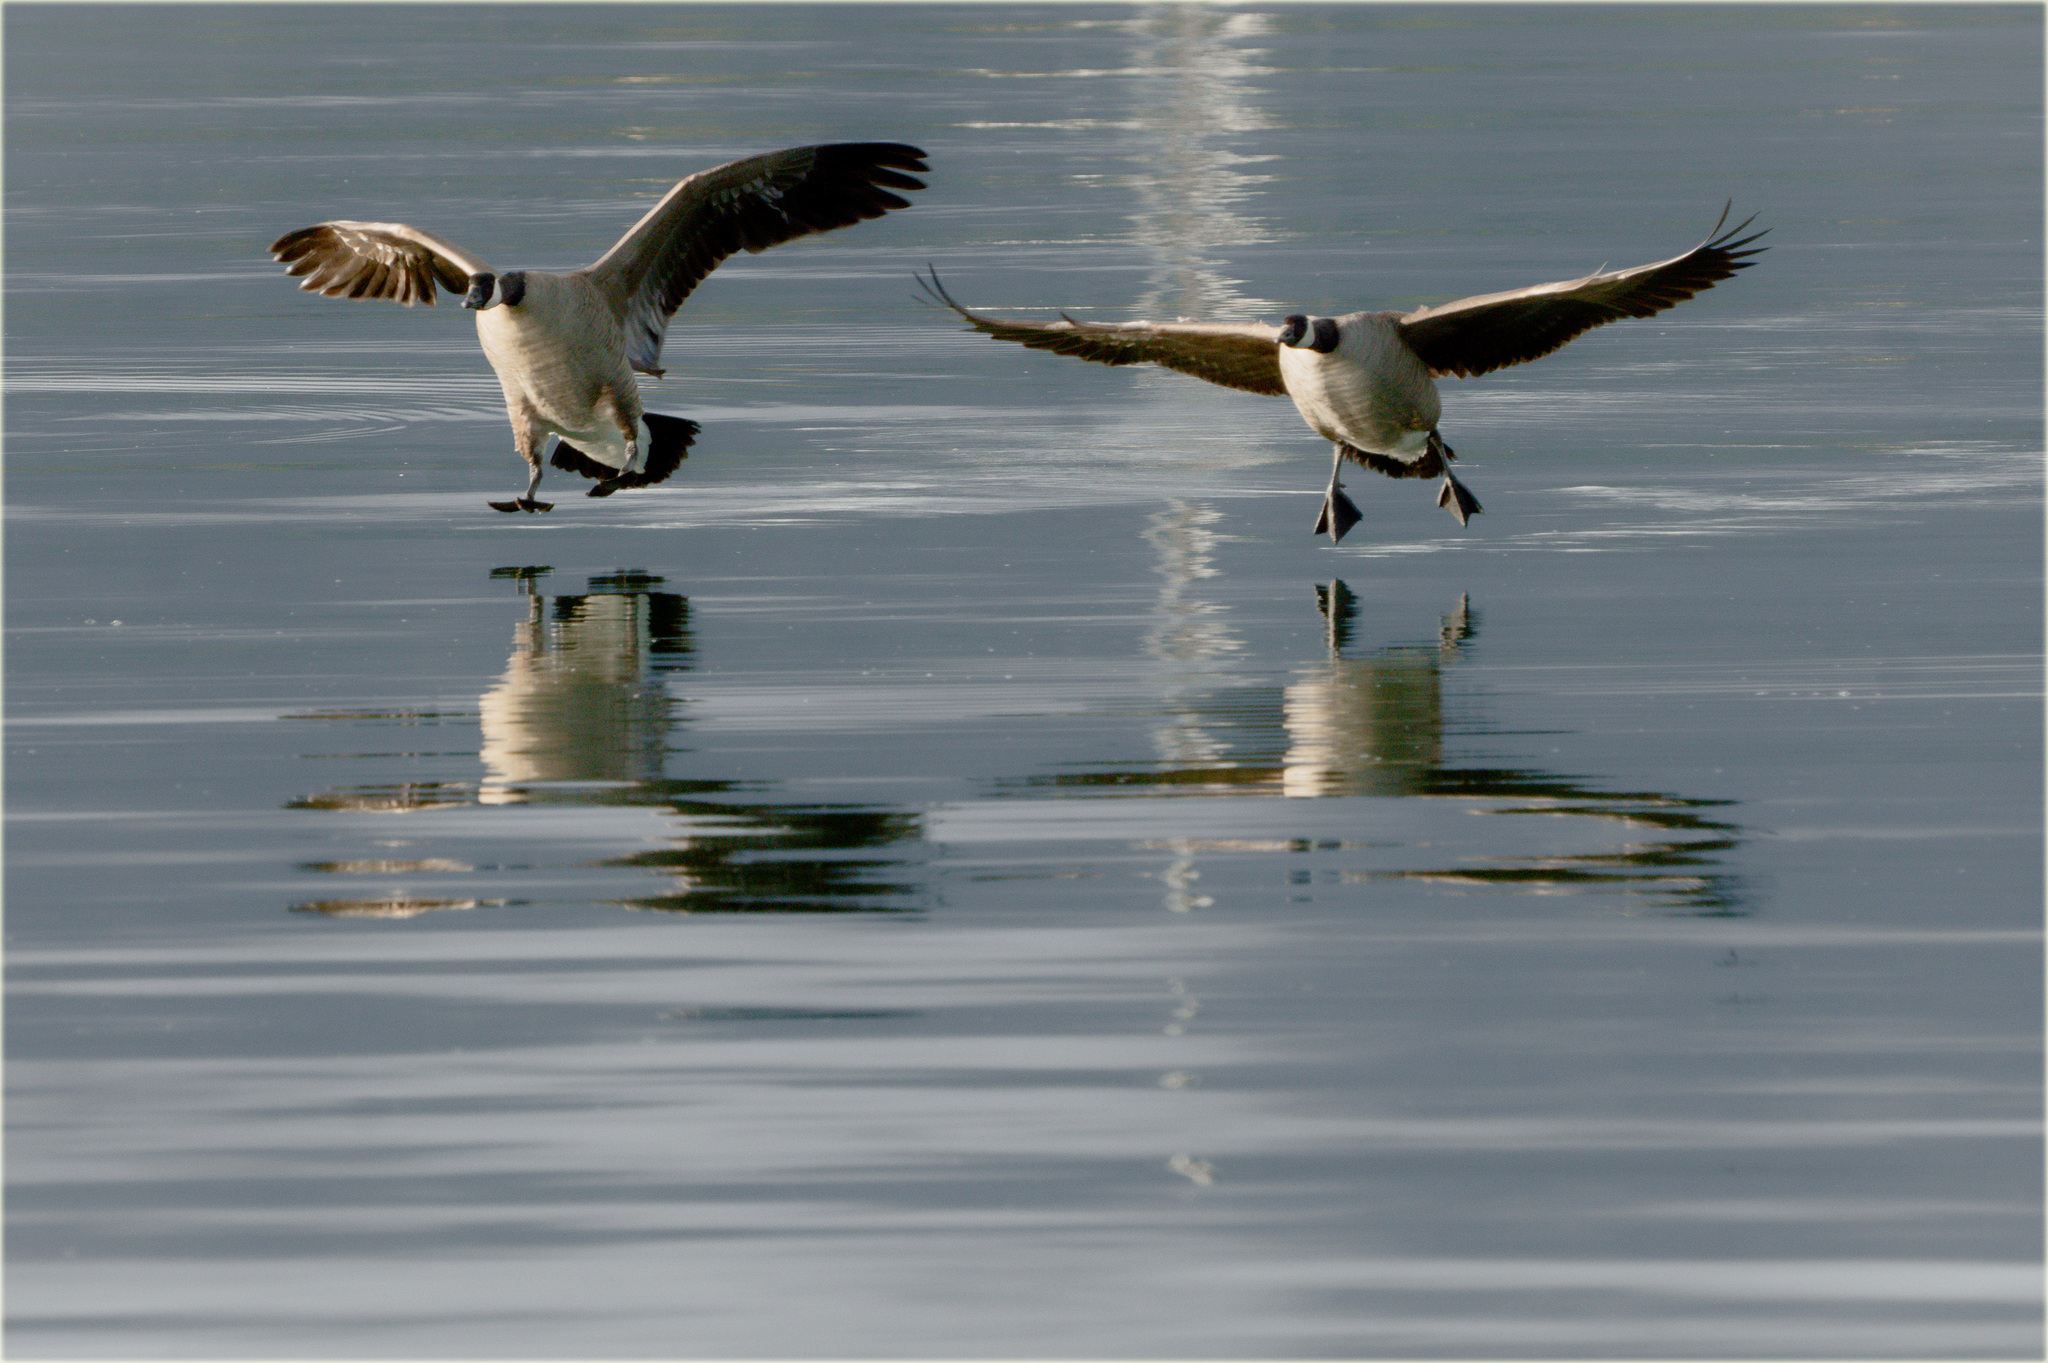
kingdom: Animalia
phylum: Chordata
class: Aves
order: Anseriformes
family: Anatidae
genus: Branta
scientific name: Branta canadensis
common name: Canada goose
